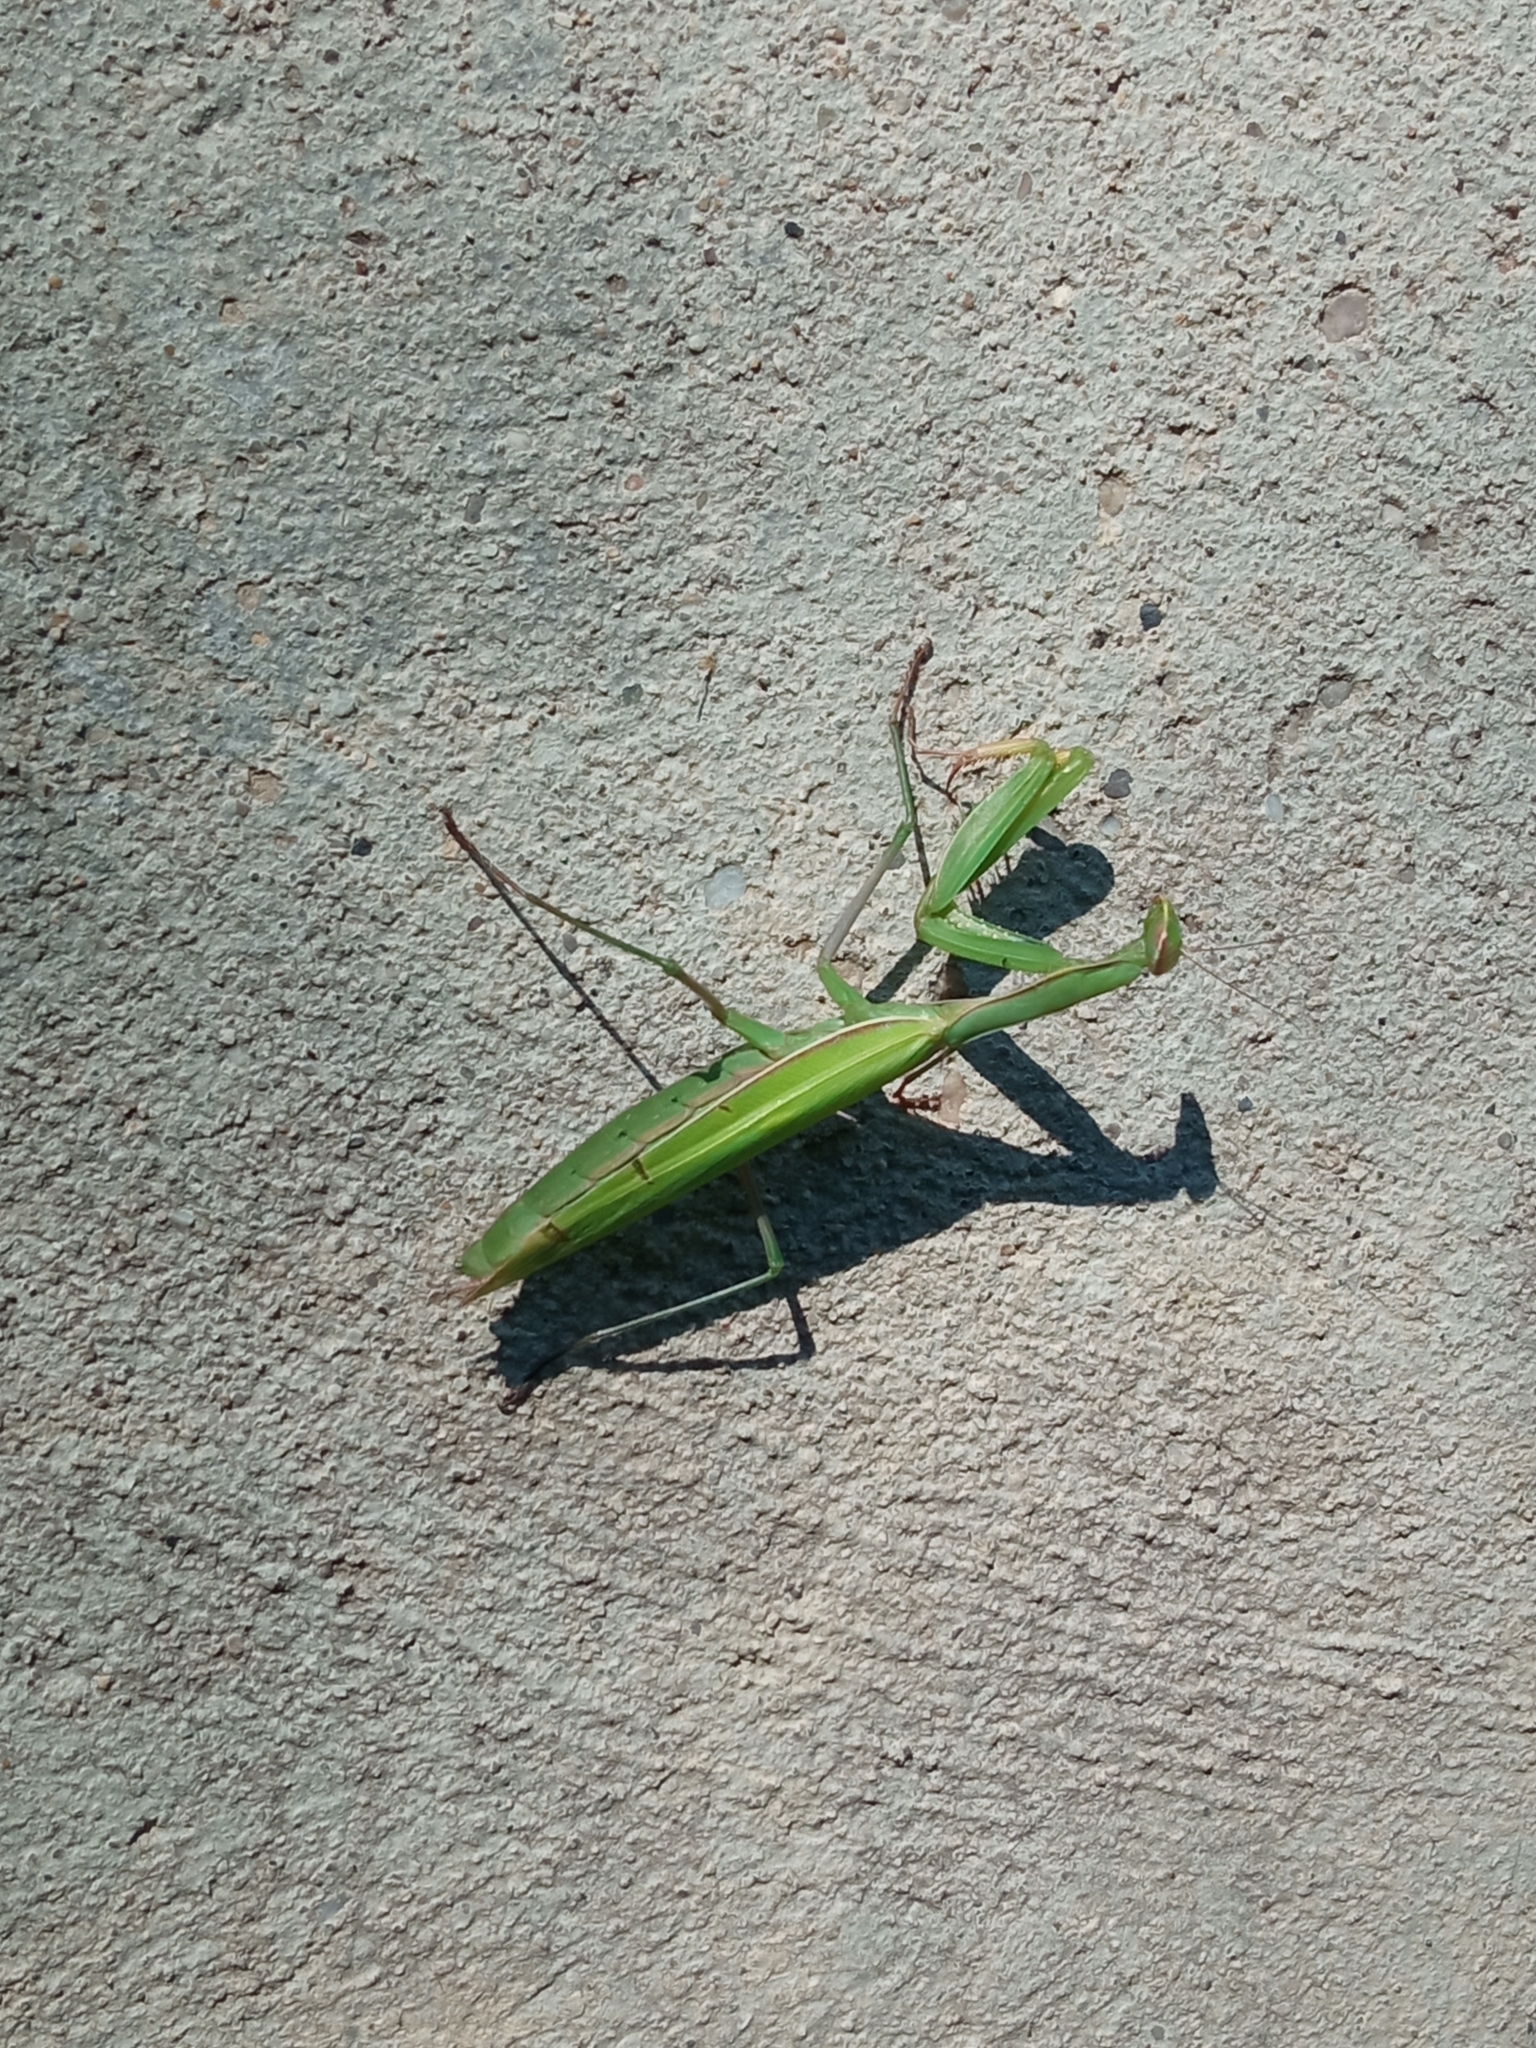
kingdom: Animalia
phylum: Arthropoda
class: Insecta
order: Mantodea
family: Mantidae
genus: Mantis
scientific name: Mantis religiosa
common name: Praying mantis
